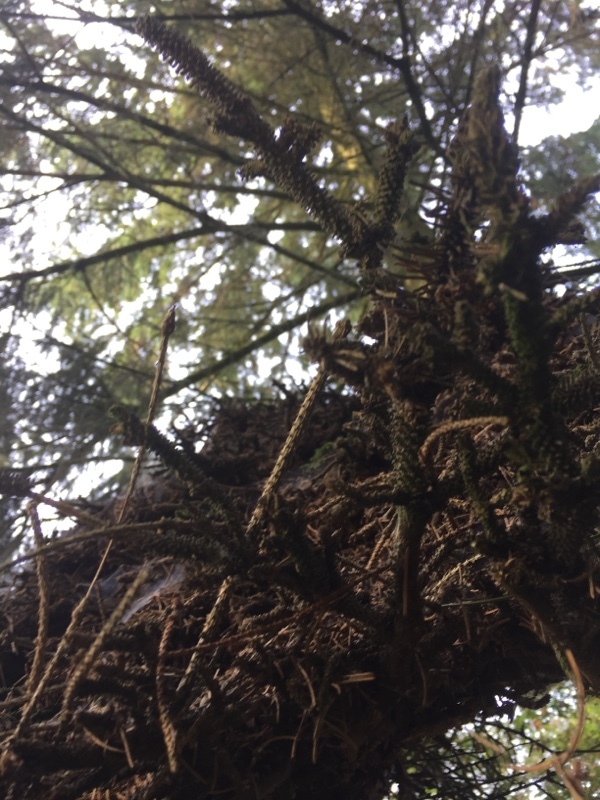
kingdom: Plantae
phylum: Tracheophyta
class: Pinopsida
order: Pinales
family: Pinaceae
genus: Picea
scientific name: Picea abies
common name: Norway spruce
